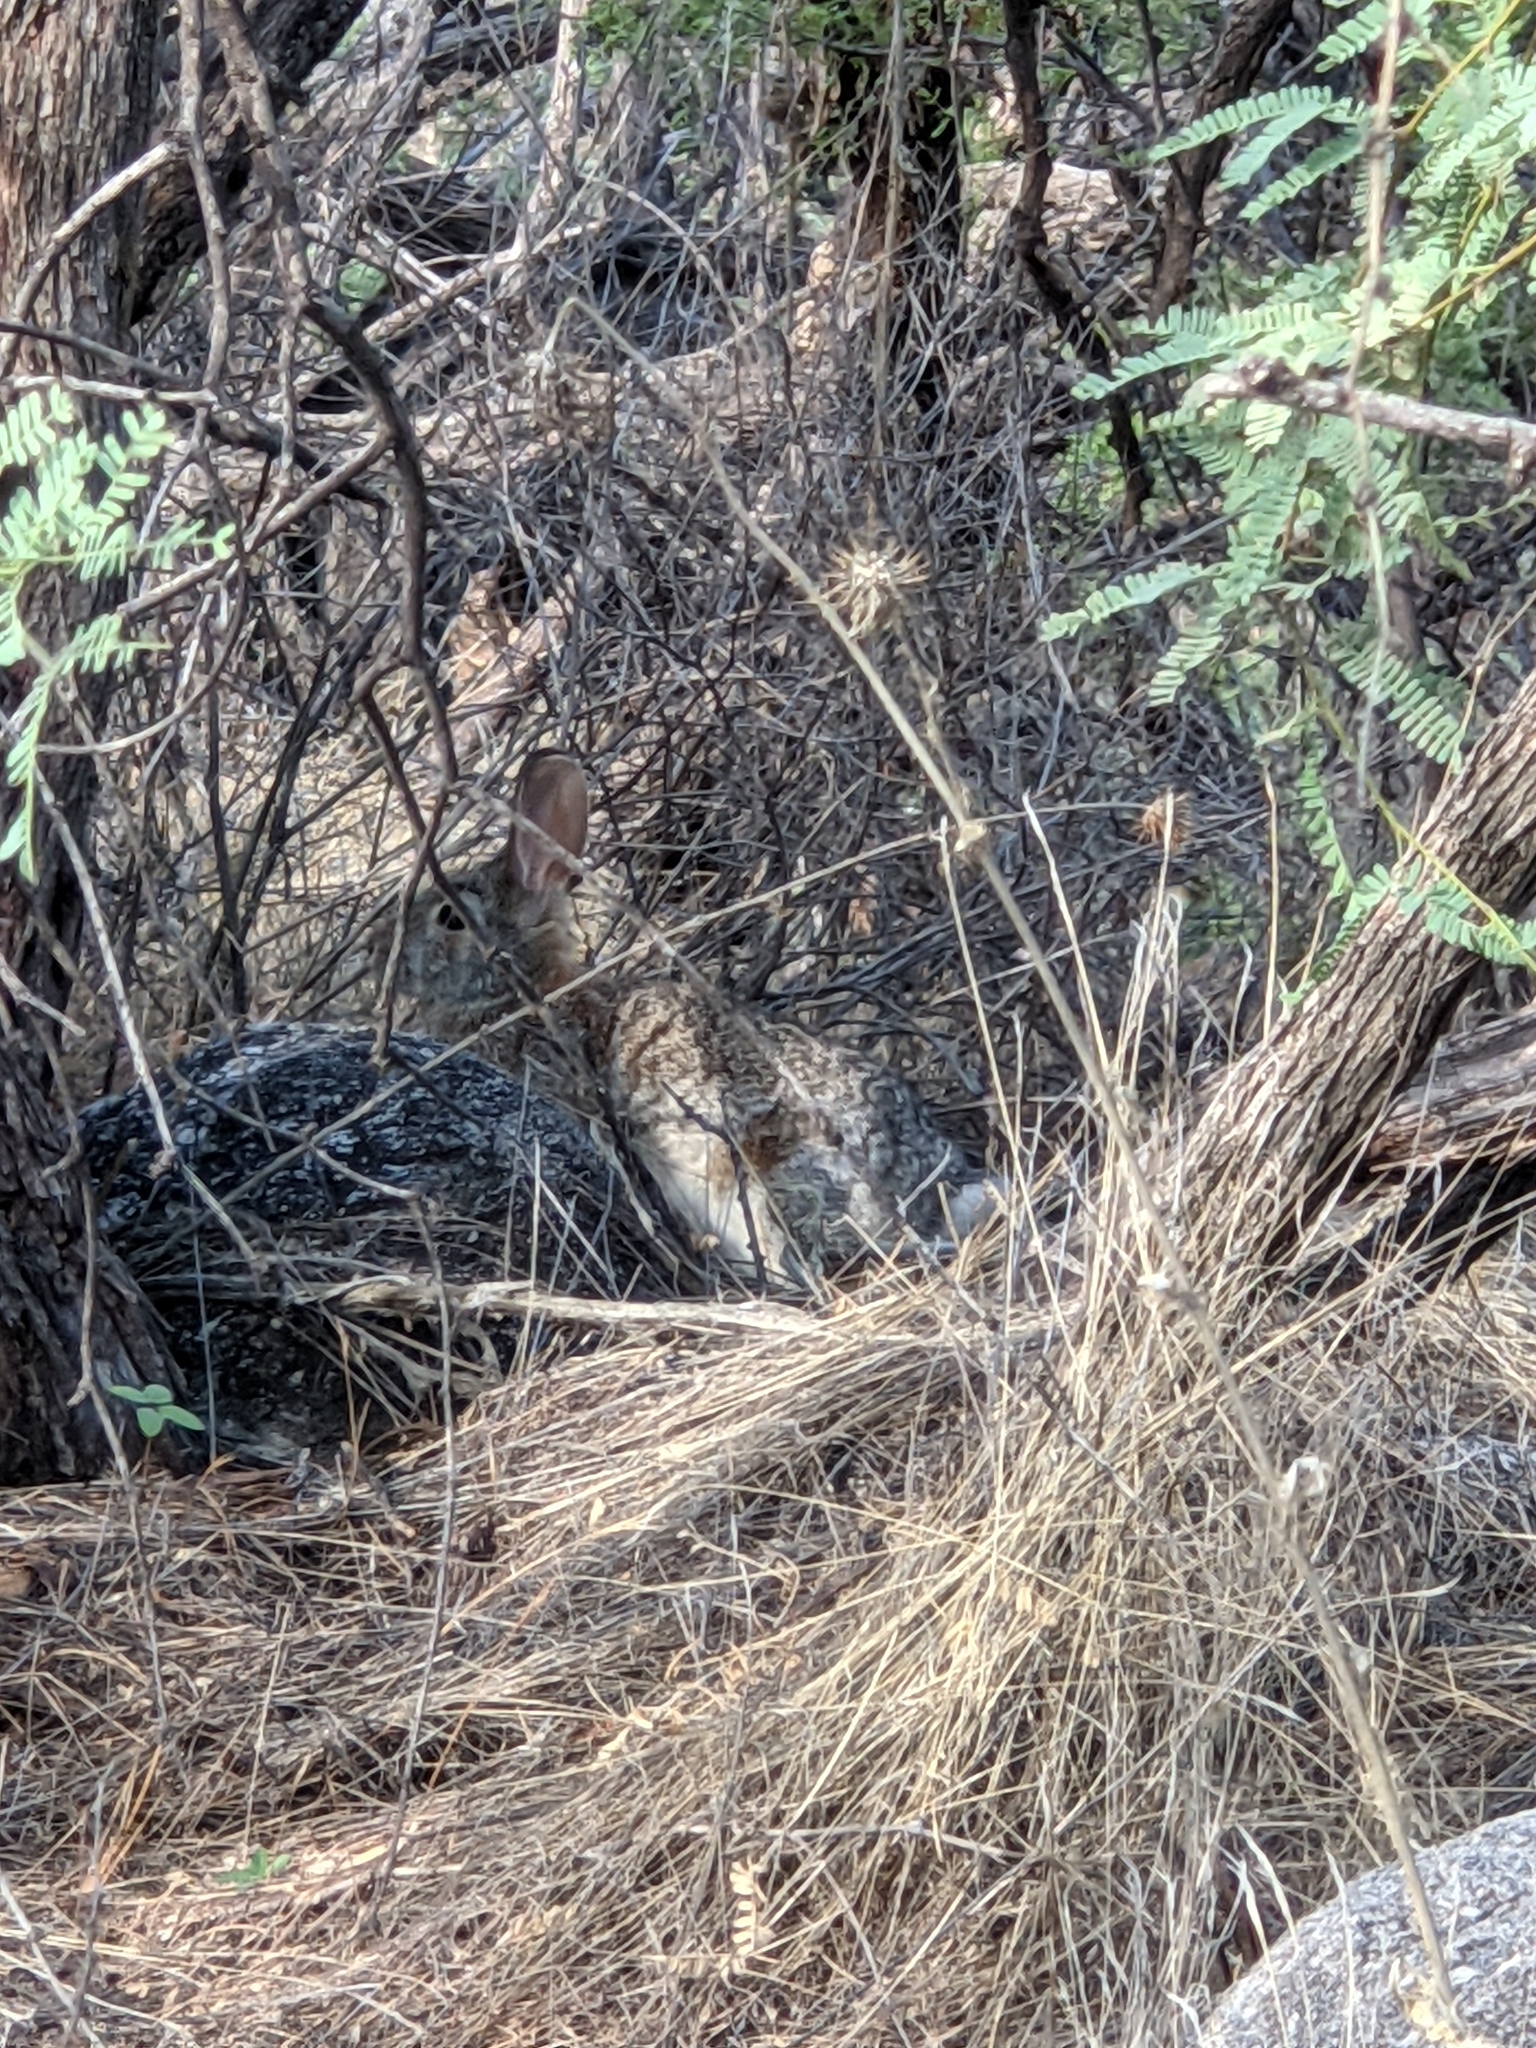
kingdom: Animalia
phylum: Chordata
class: Mammalia
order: Lagomorpha
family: Leporidae
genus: Sylvilagus
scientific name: Sylvilagus audubonii
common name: Desert cottontail
